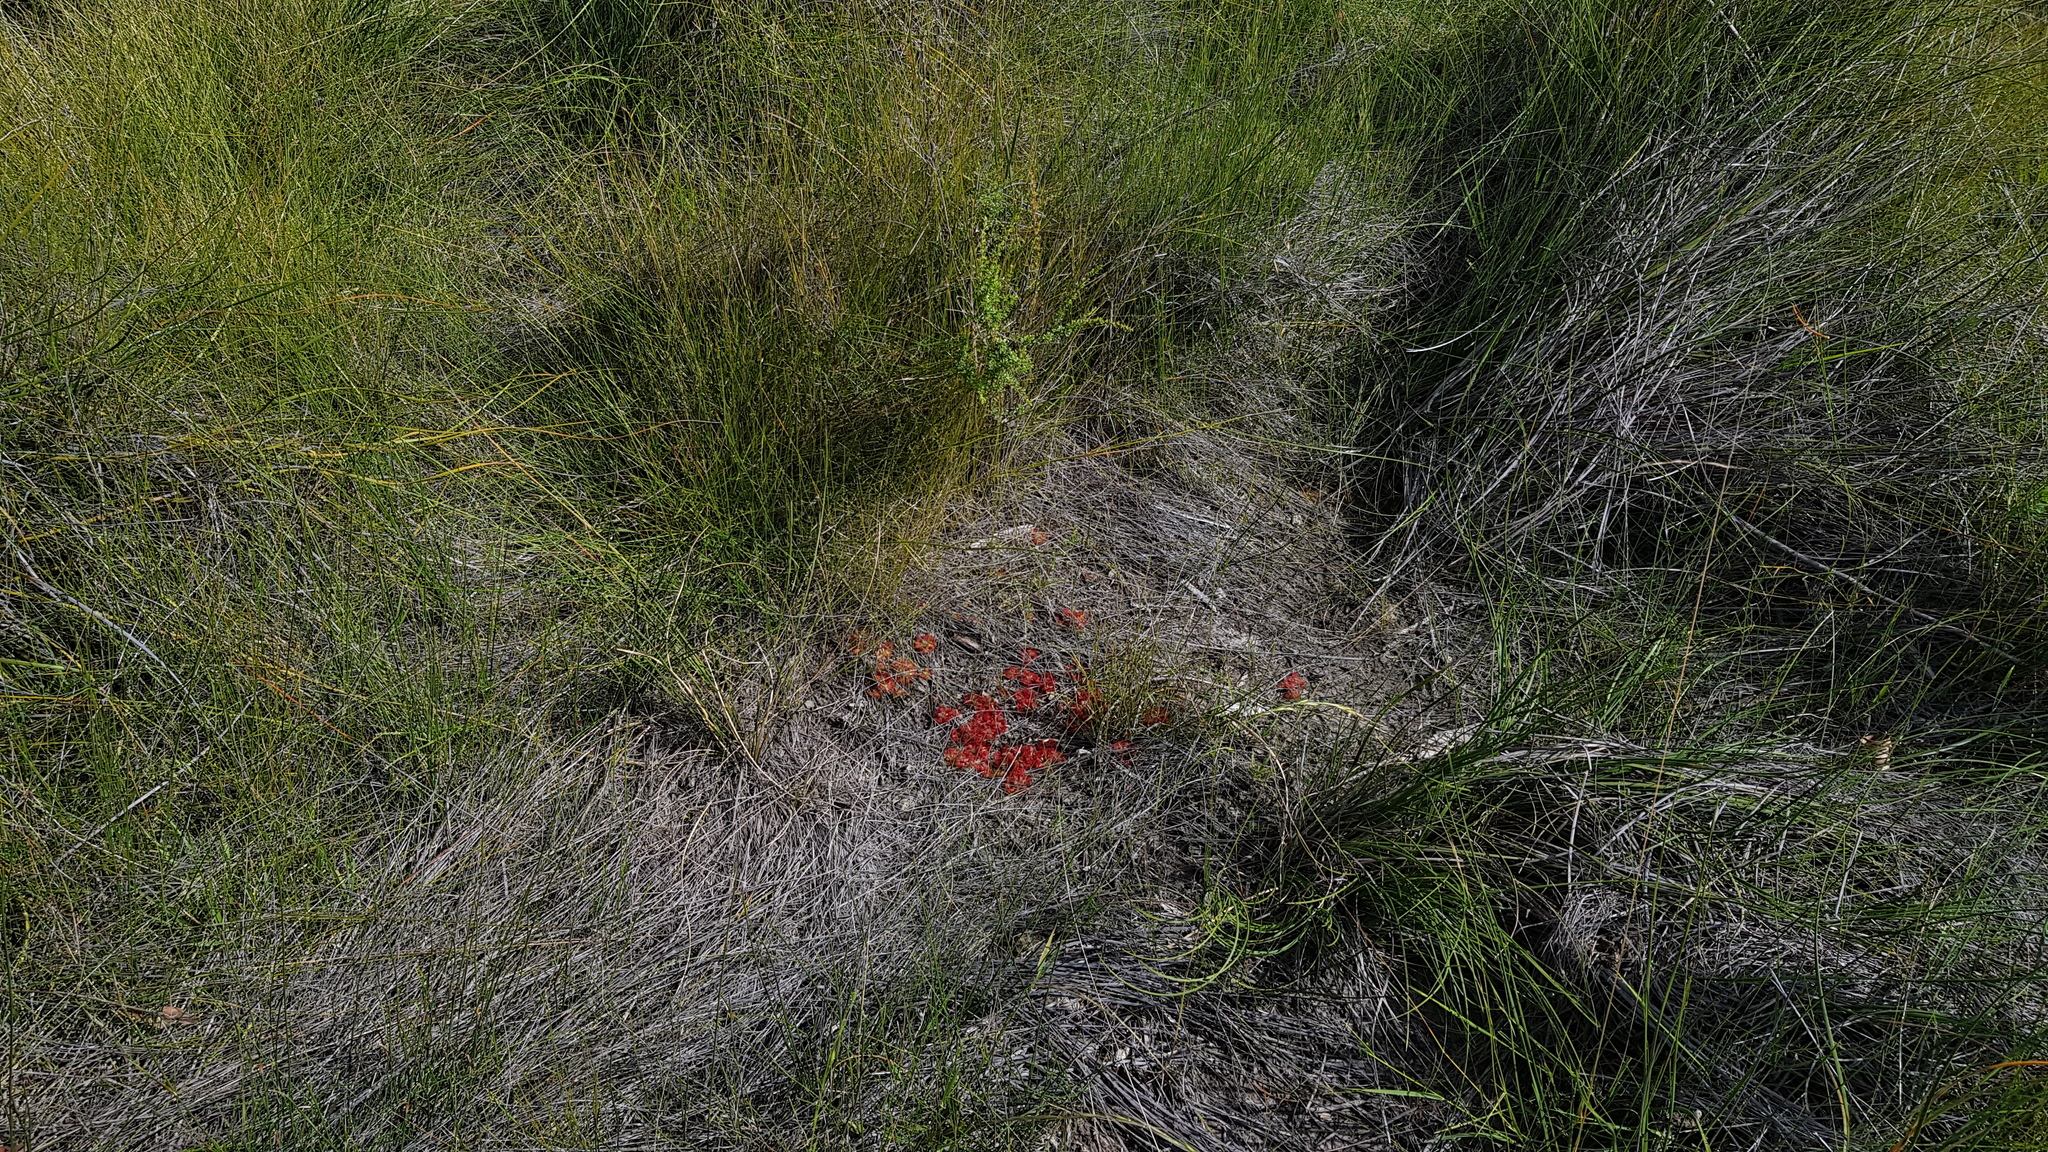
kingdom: Plantae
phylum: Tracheophyta
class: Magnoliopsida
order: Caryophyllales
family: Droseraceae
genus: Drosera
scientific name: Drosera spatulata
